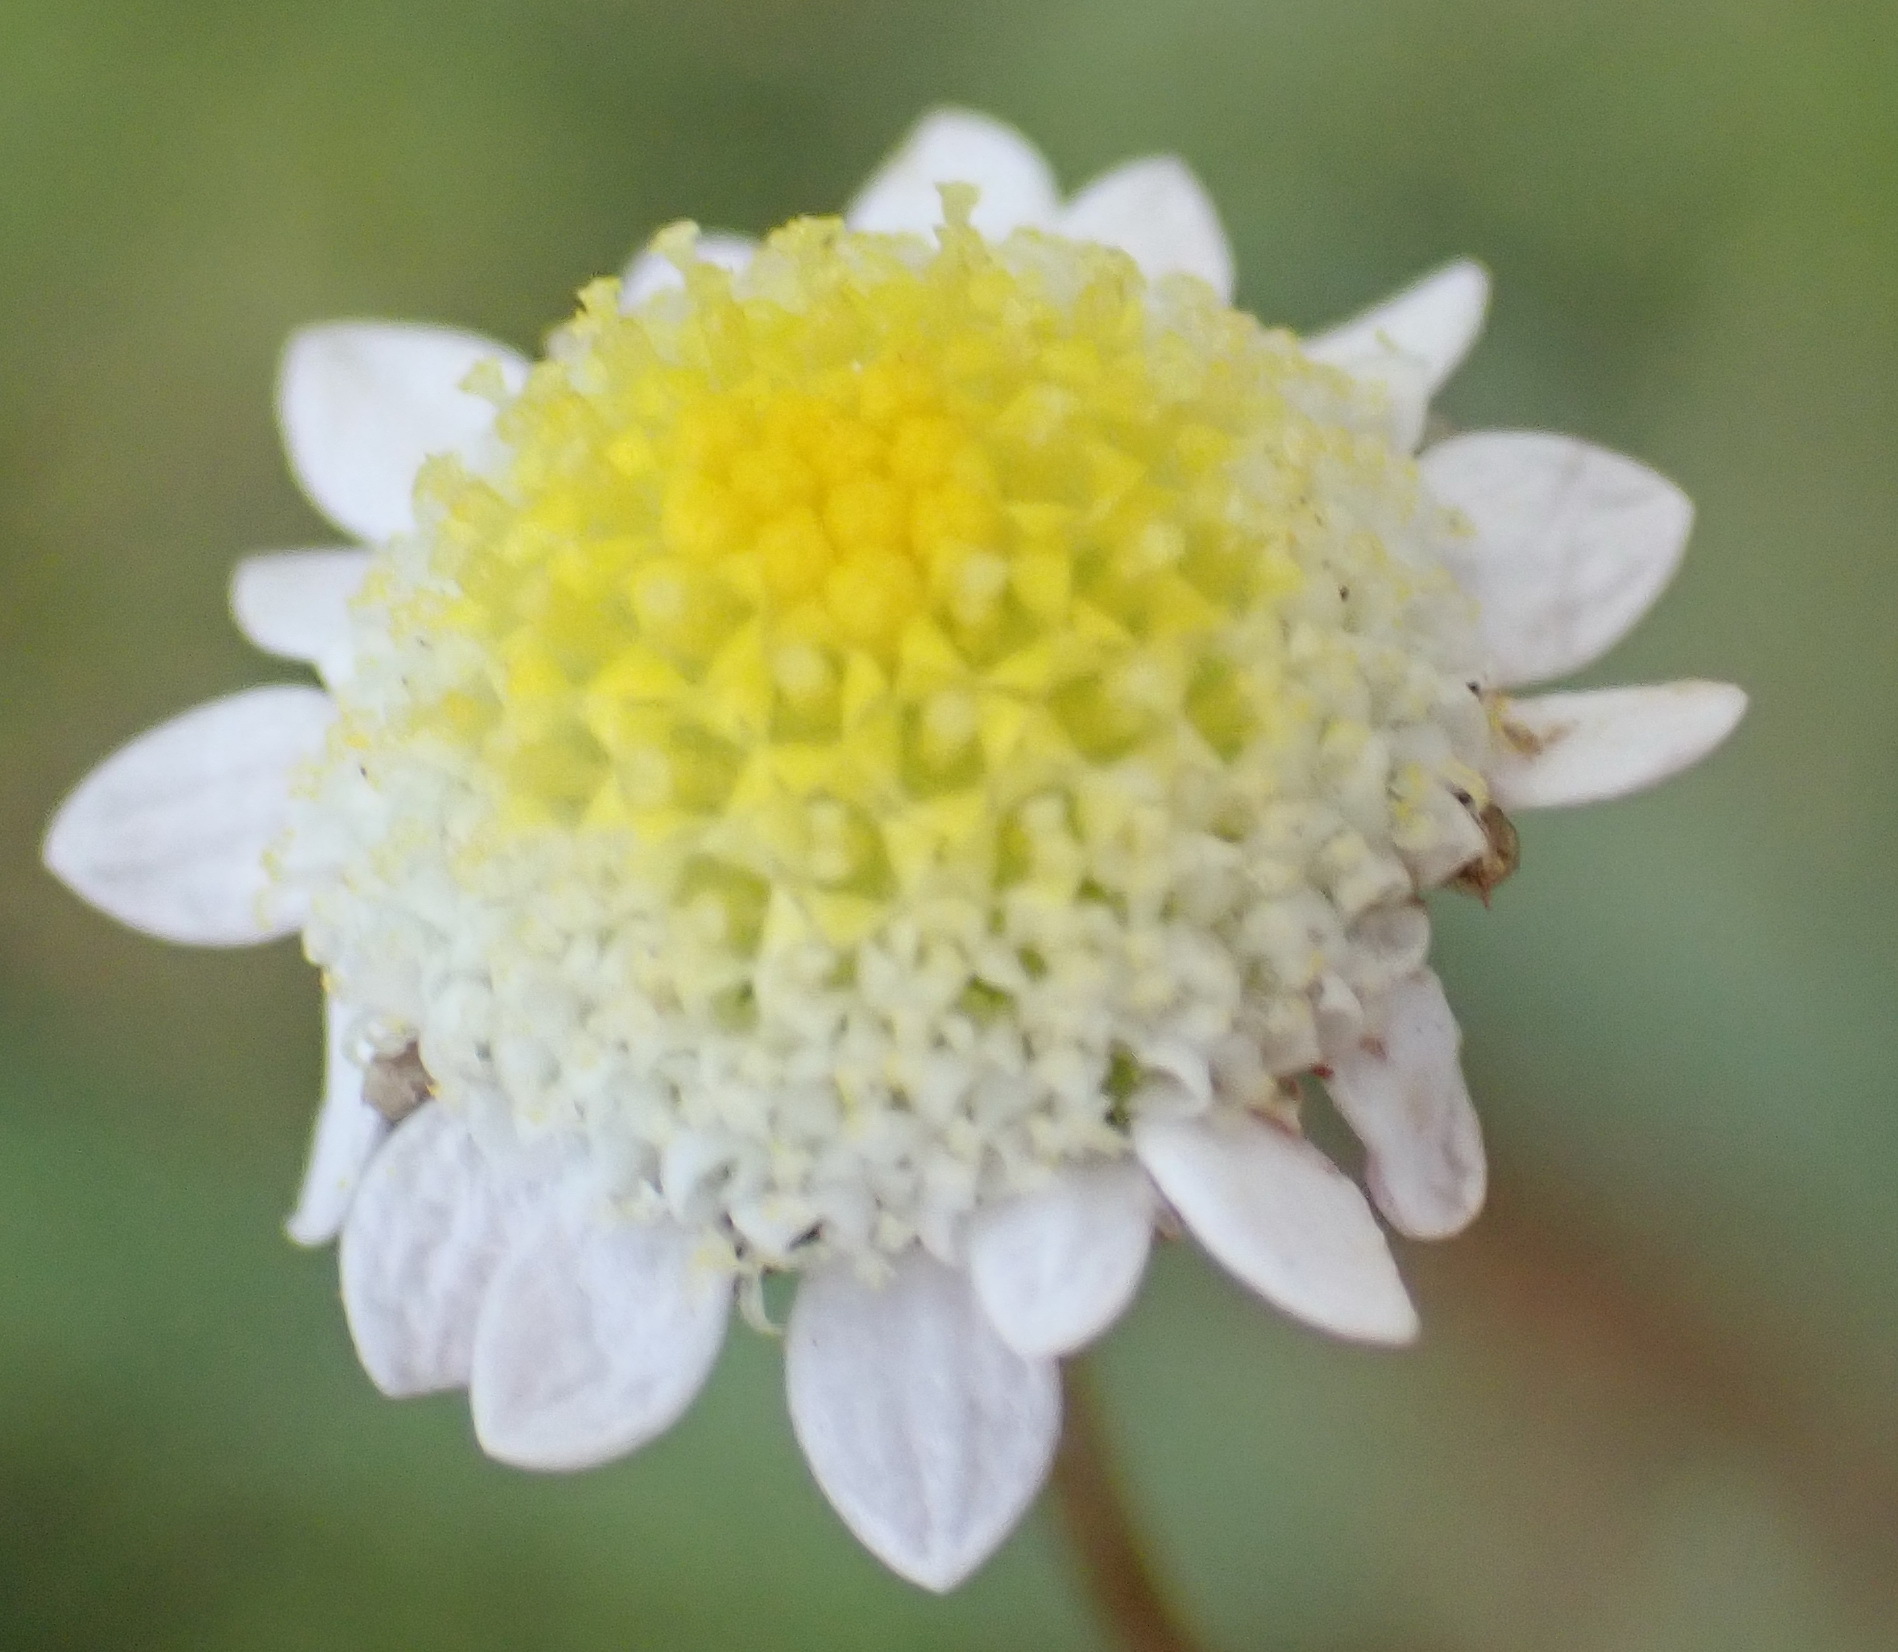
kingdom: Plantae
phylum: Tracheophyta
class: Magnoliopsida
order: Asterales
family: Asteraceae
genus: Cotula
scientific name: Cotula turbinata
